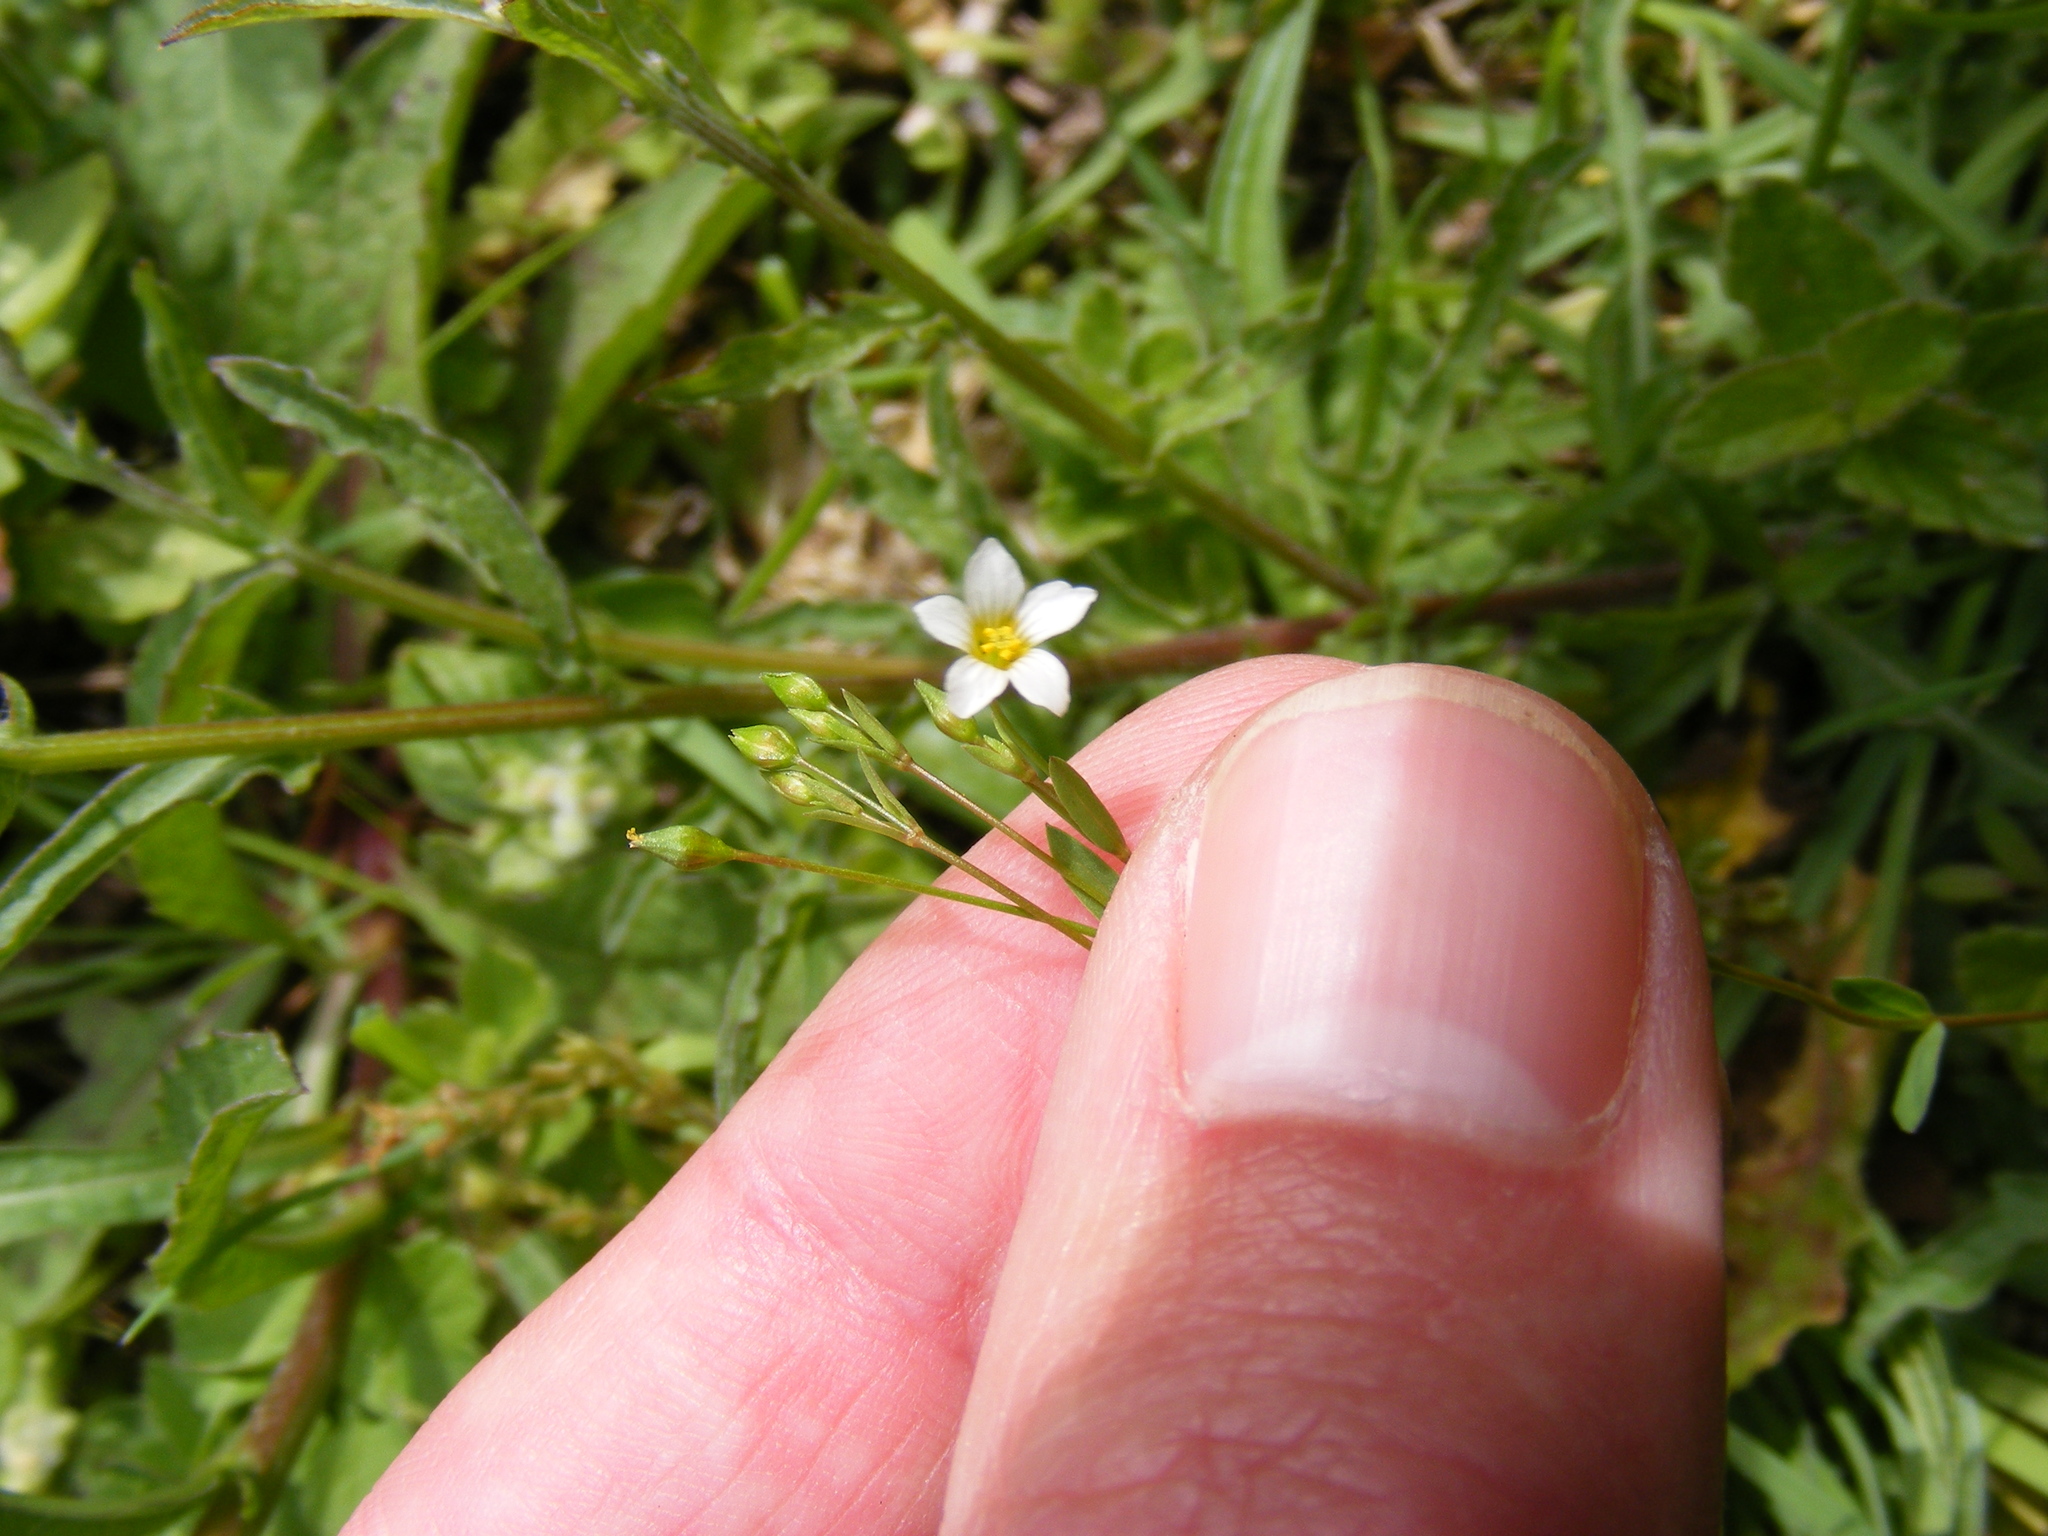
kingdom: Plantae
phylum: Tracheophyta
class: Magnoliopsida
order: Malpighiales
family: Linaceae
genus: Linum
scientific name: Linum catharticum
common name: Fairy flax
